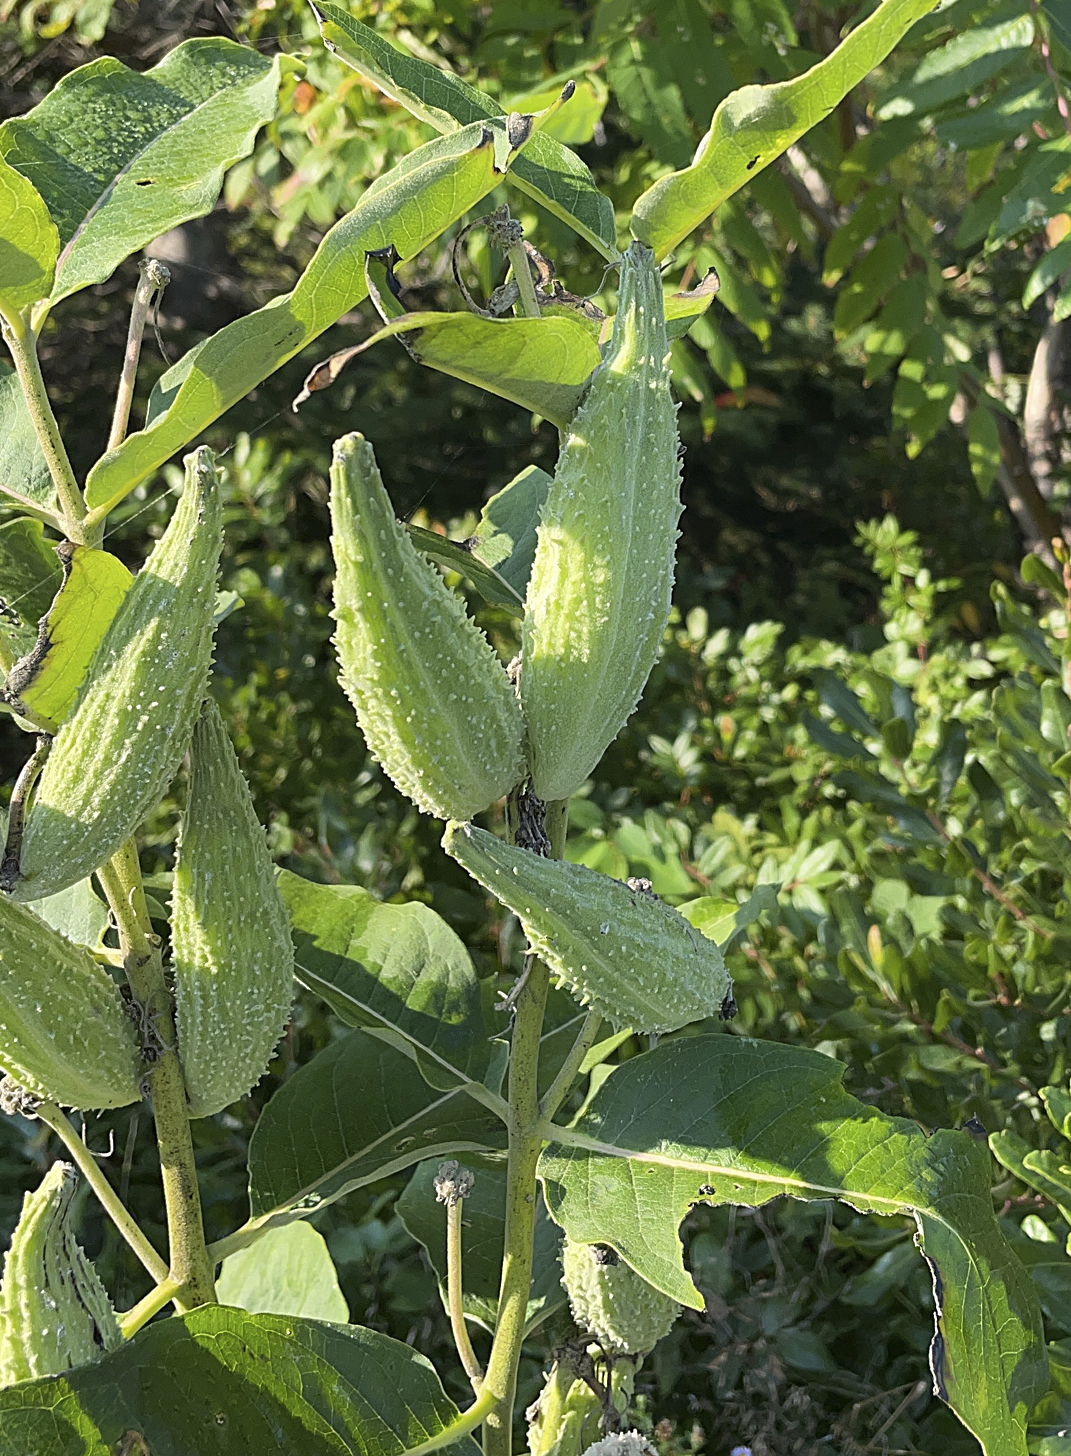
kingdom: Plantae
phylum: Tracheophyta
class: Magnoliopsida
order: Gentianales
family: Apocynaceae
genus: Asclepias
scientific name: Asclepias syriaca
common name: Common milkweed
